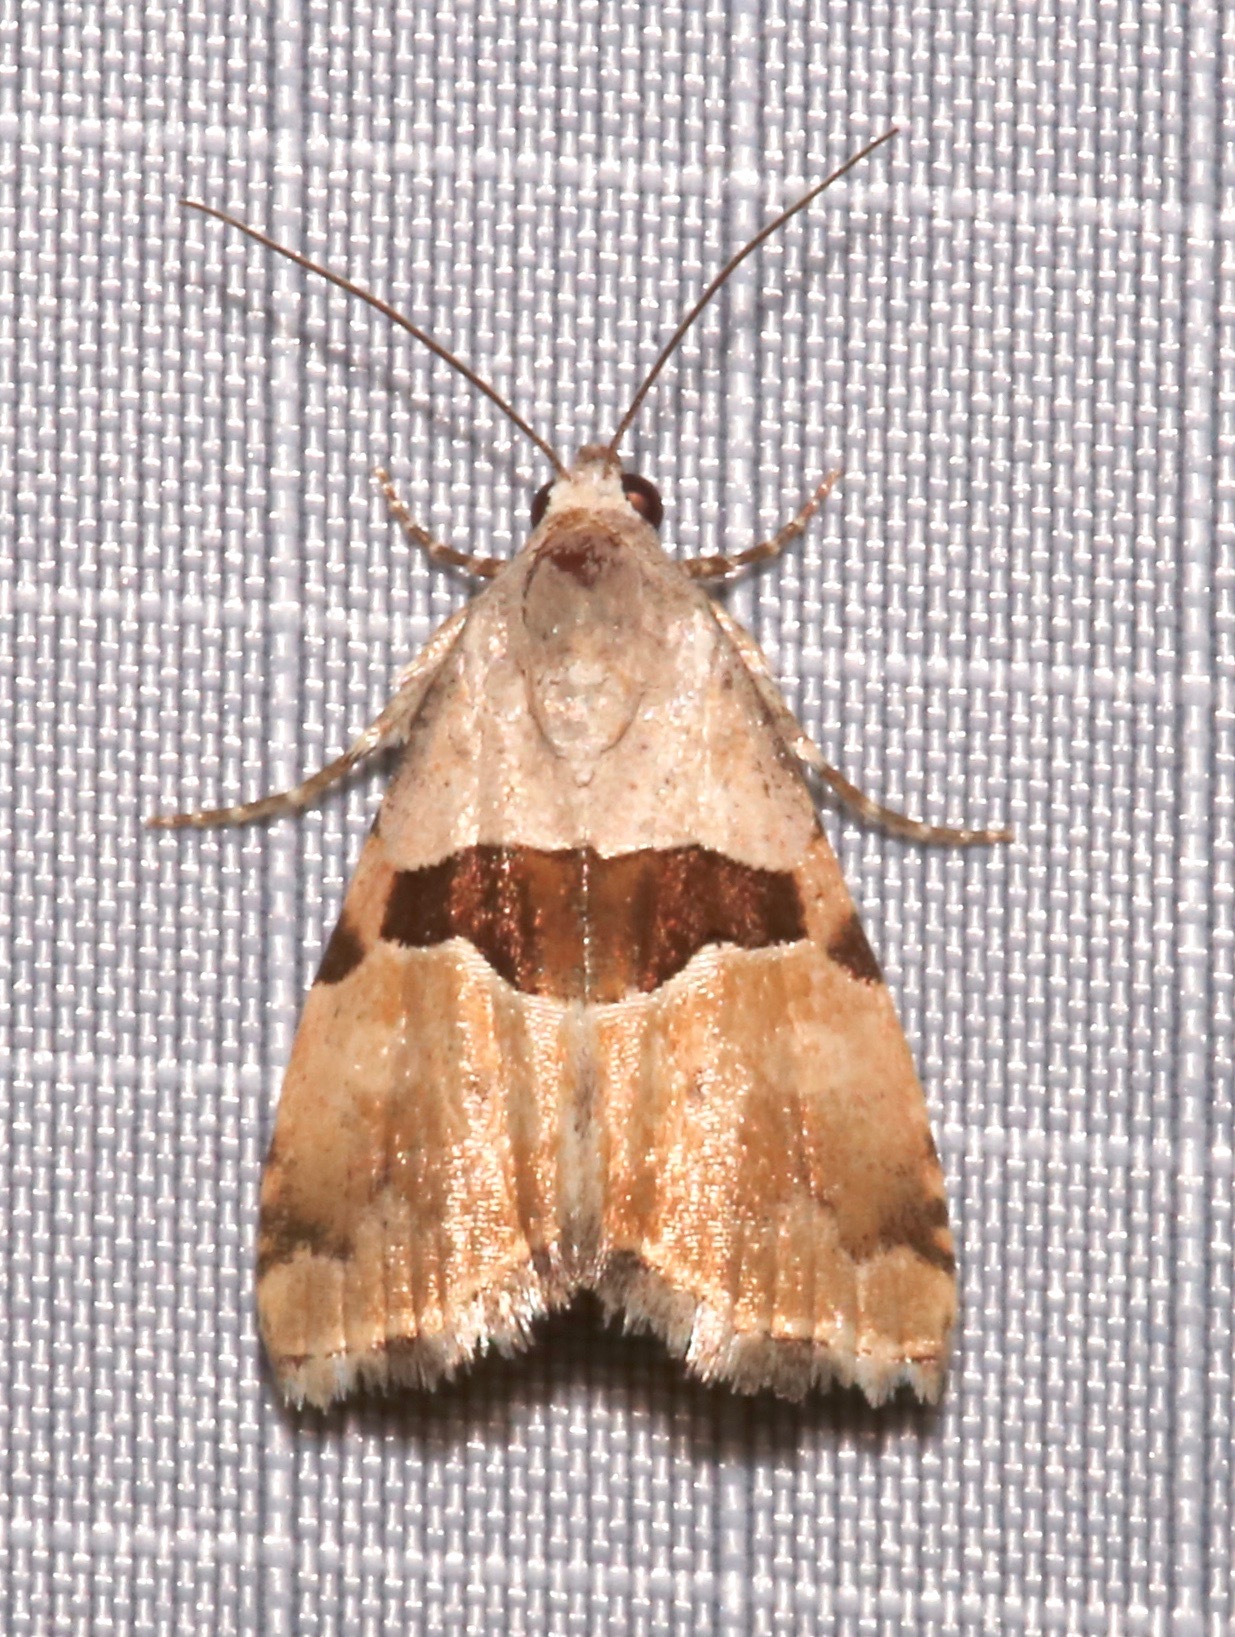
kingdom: Animalia
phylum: Arthropoda
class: Insecta
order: Lepidoptera
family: Noctuidae
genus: Cobubatha
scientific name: Cobubatha lixiva
